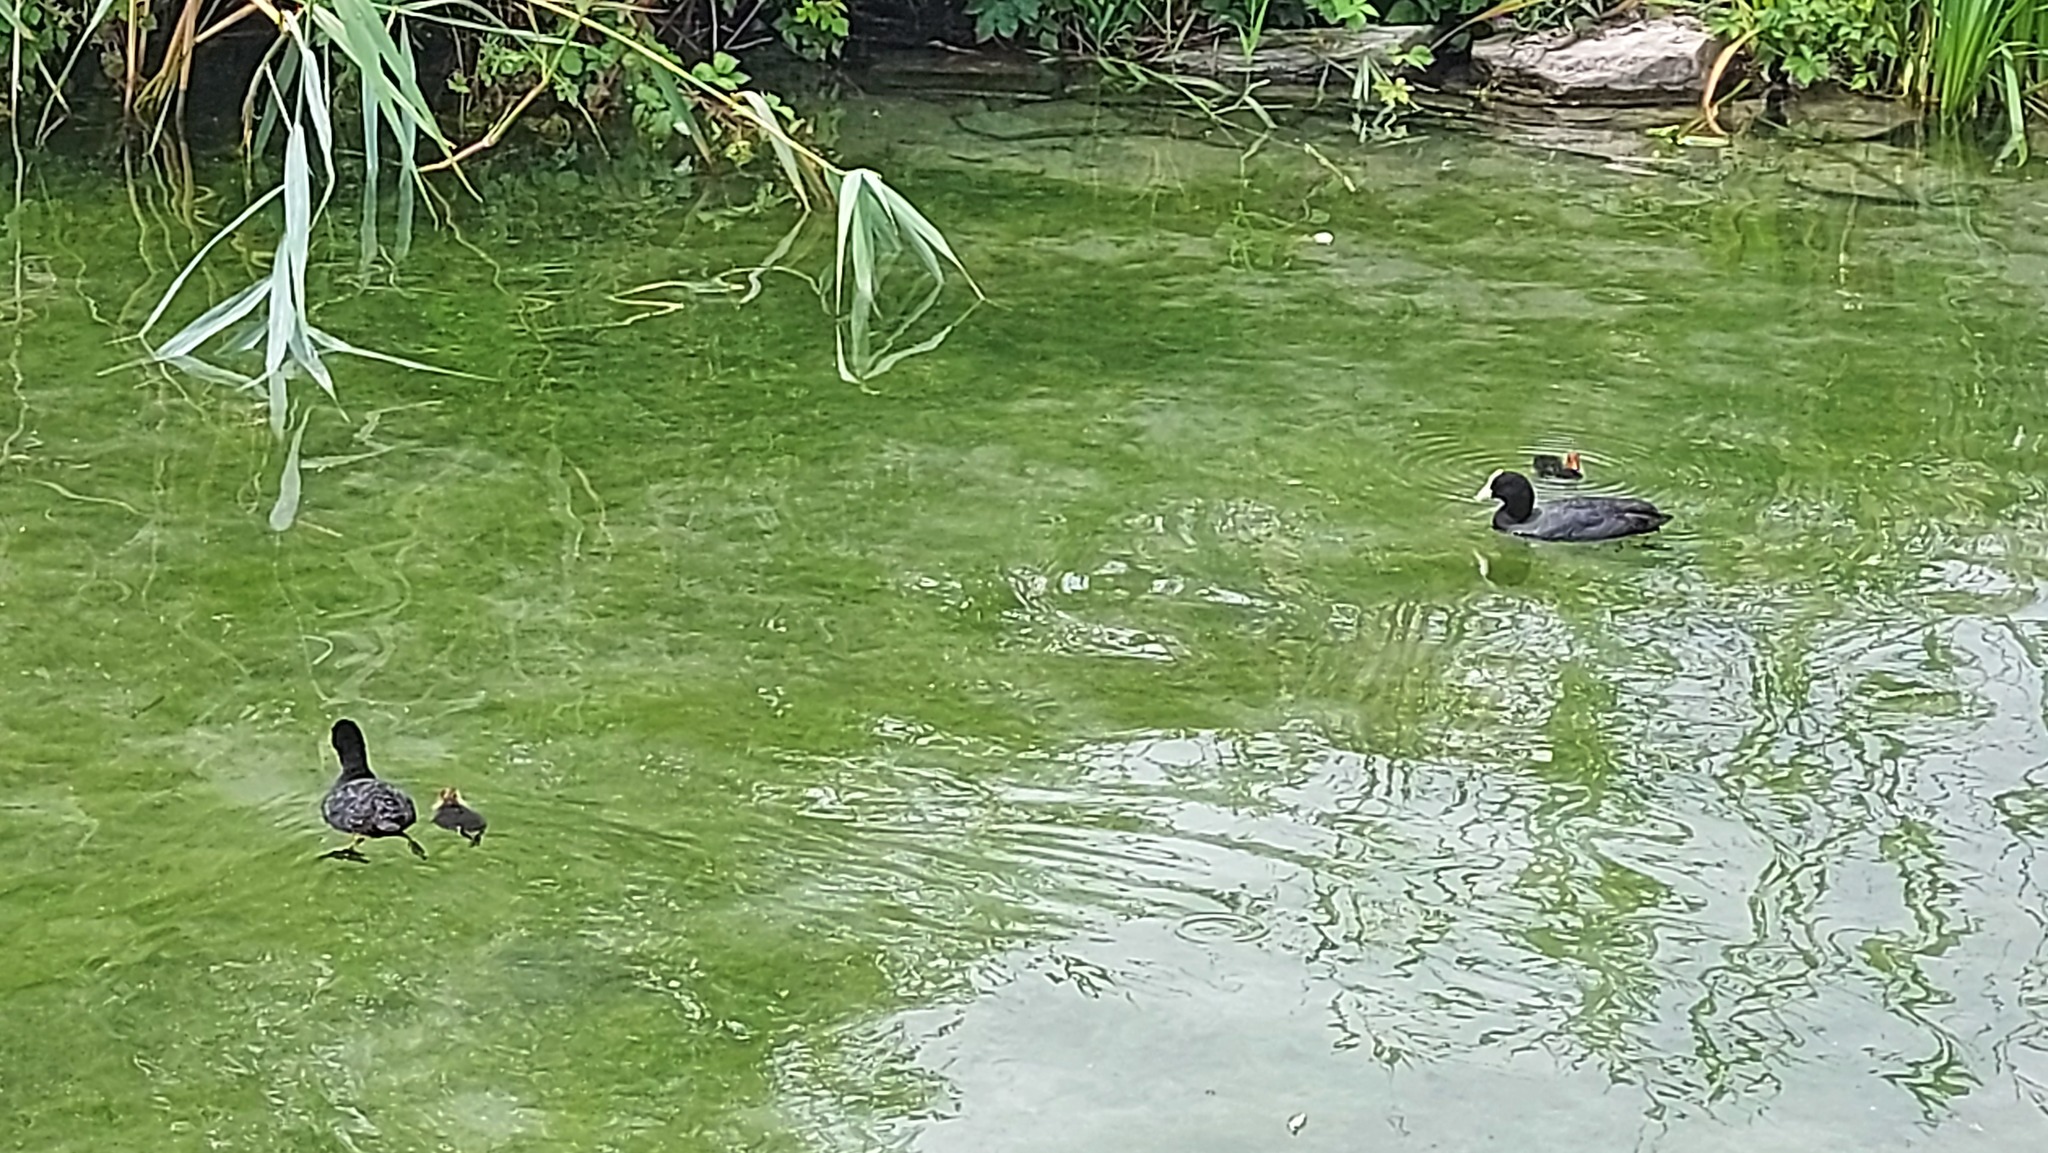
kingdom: Animalia
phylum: Chordata
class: Aves
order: Gruiformes
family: Rallidae
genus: Fulica
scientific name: Fulica atra
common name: Eurasian coot
